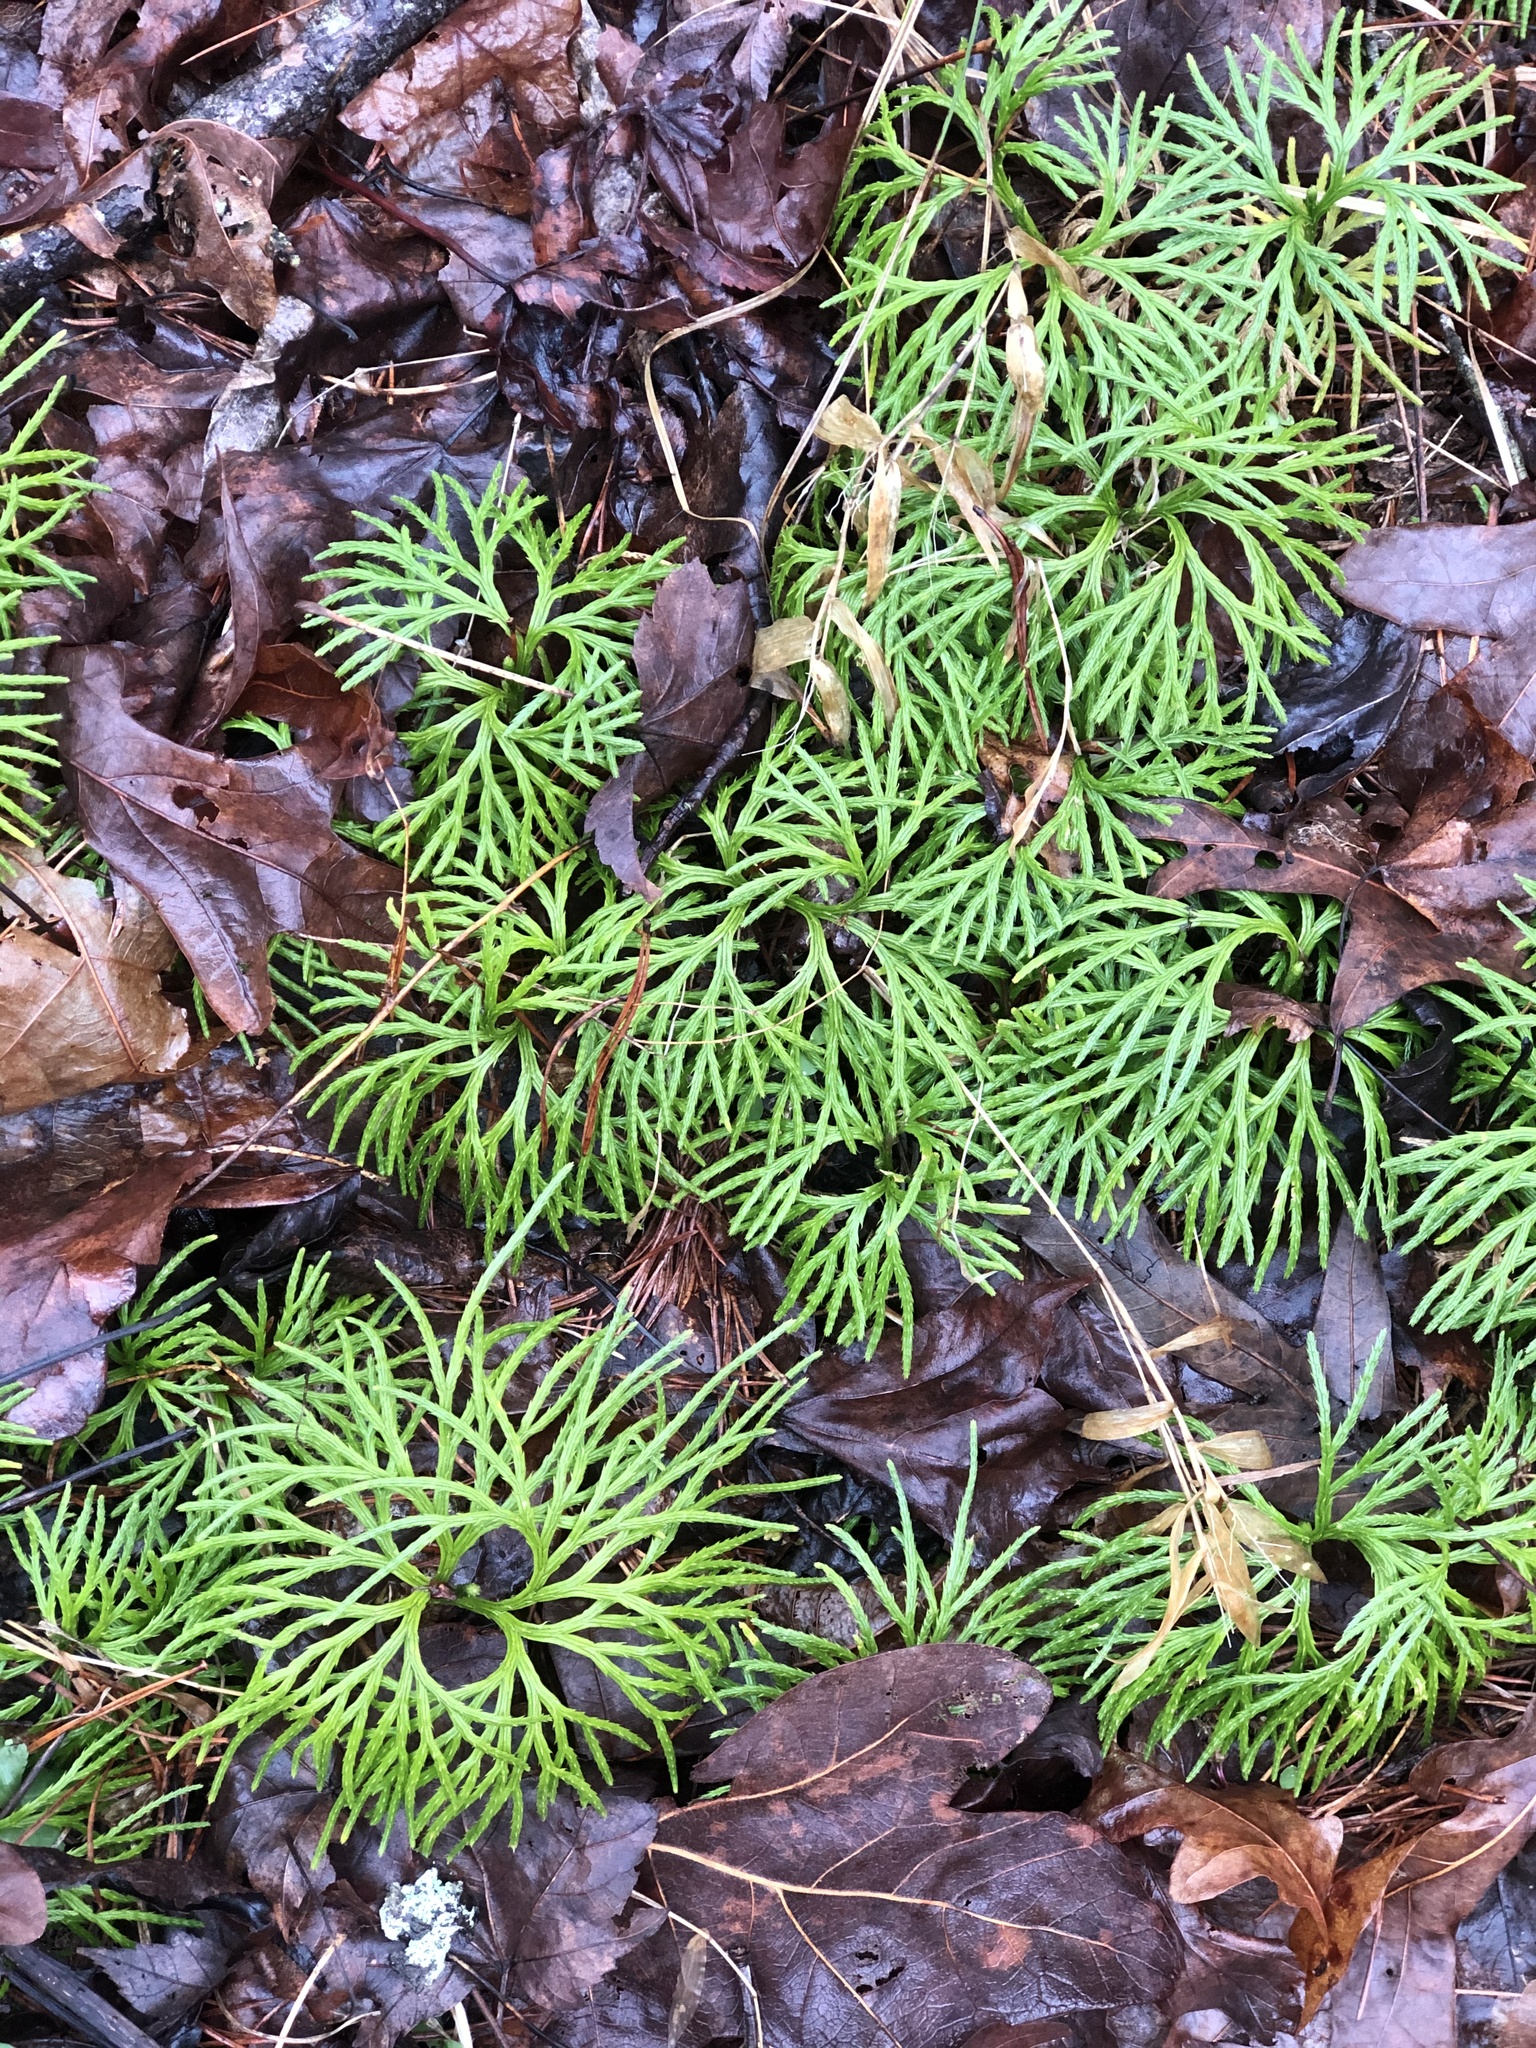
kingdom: Plantae
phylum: Tracheophyta
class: Lycopodiopsida
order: Lycopodiales
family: Lycopodiaceae
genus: Diphasiastrum
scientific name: Diphasiastrum digitatum
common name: Southern running-pine
